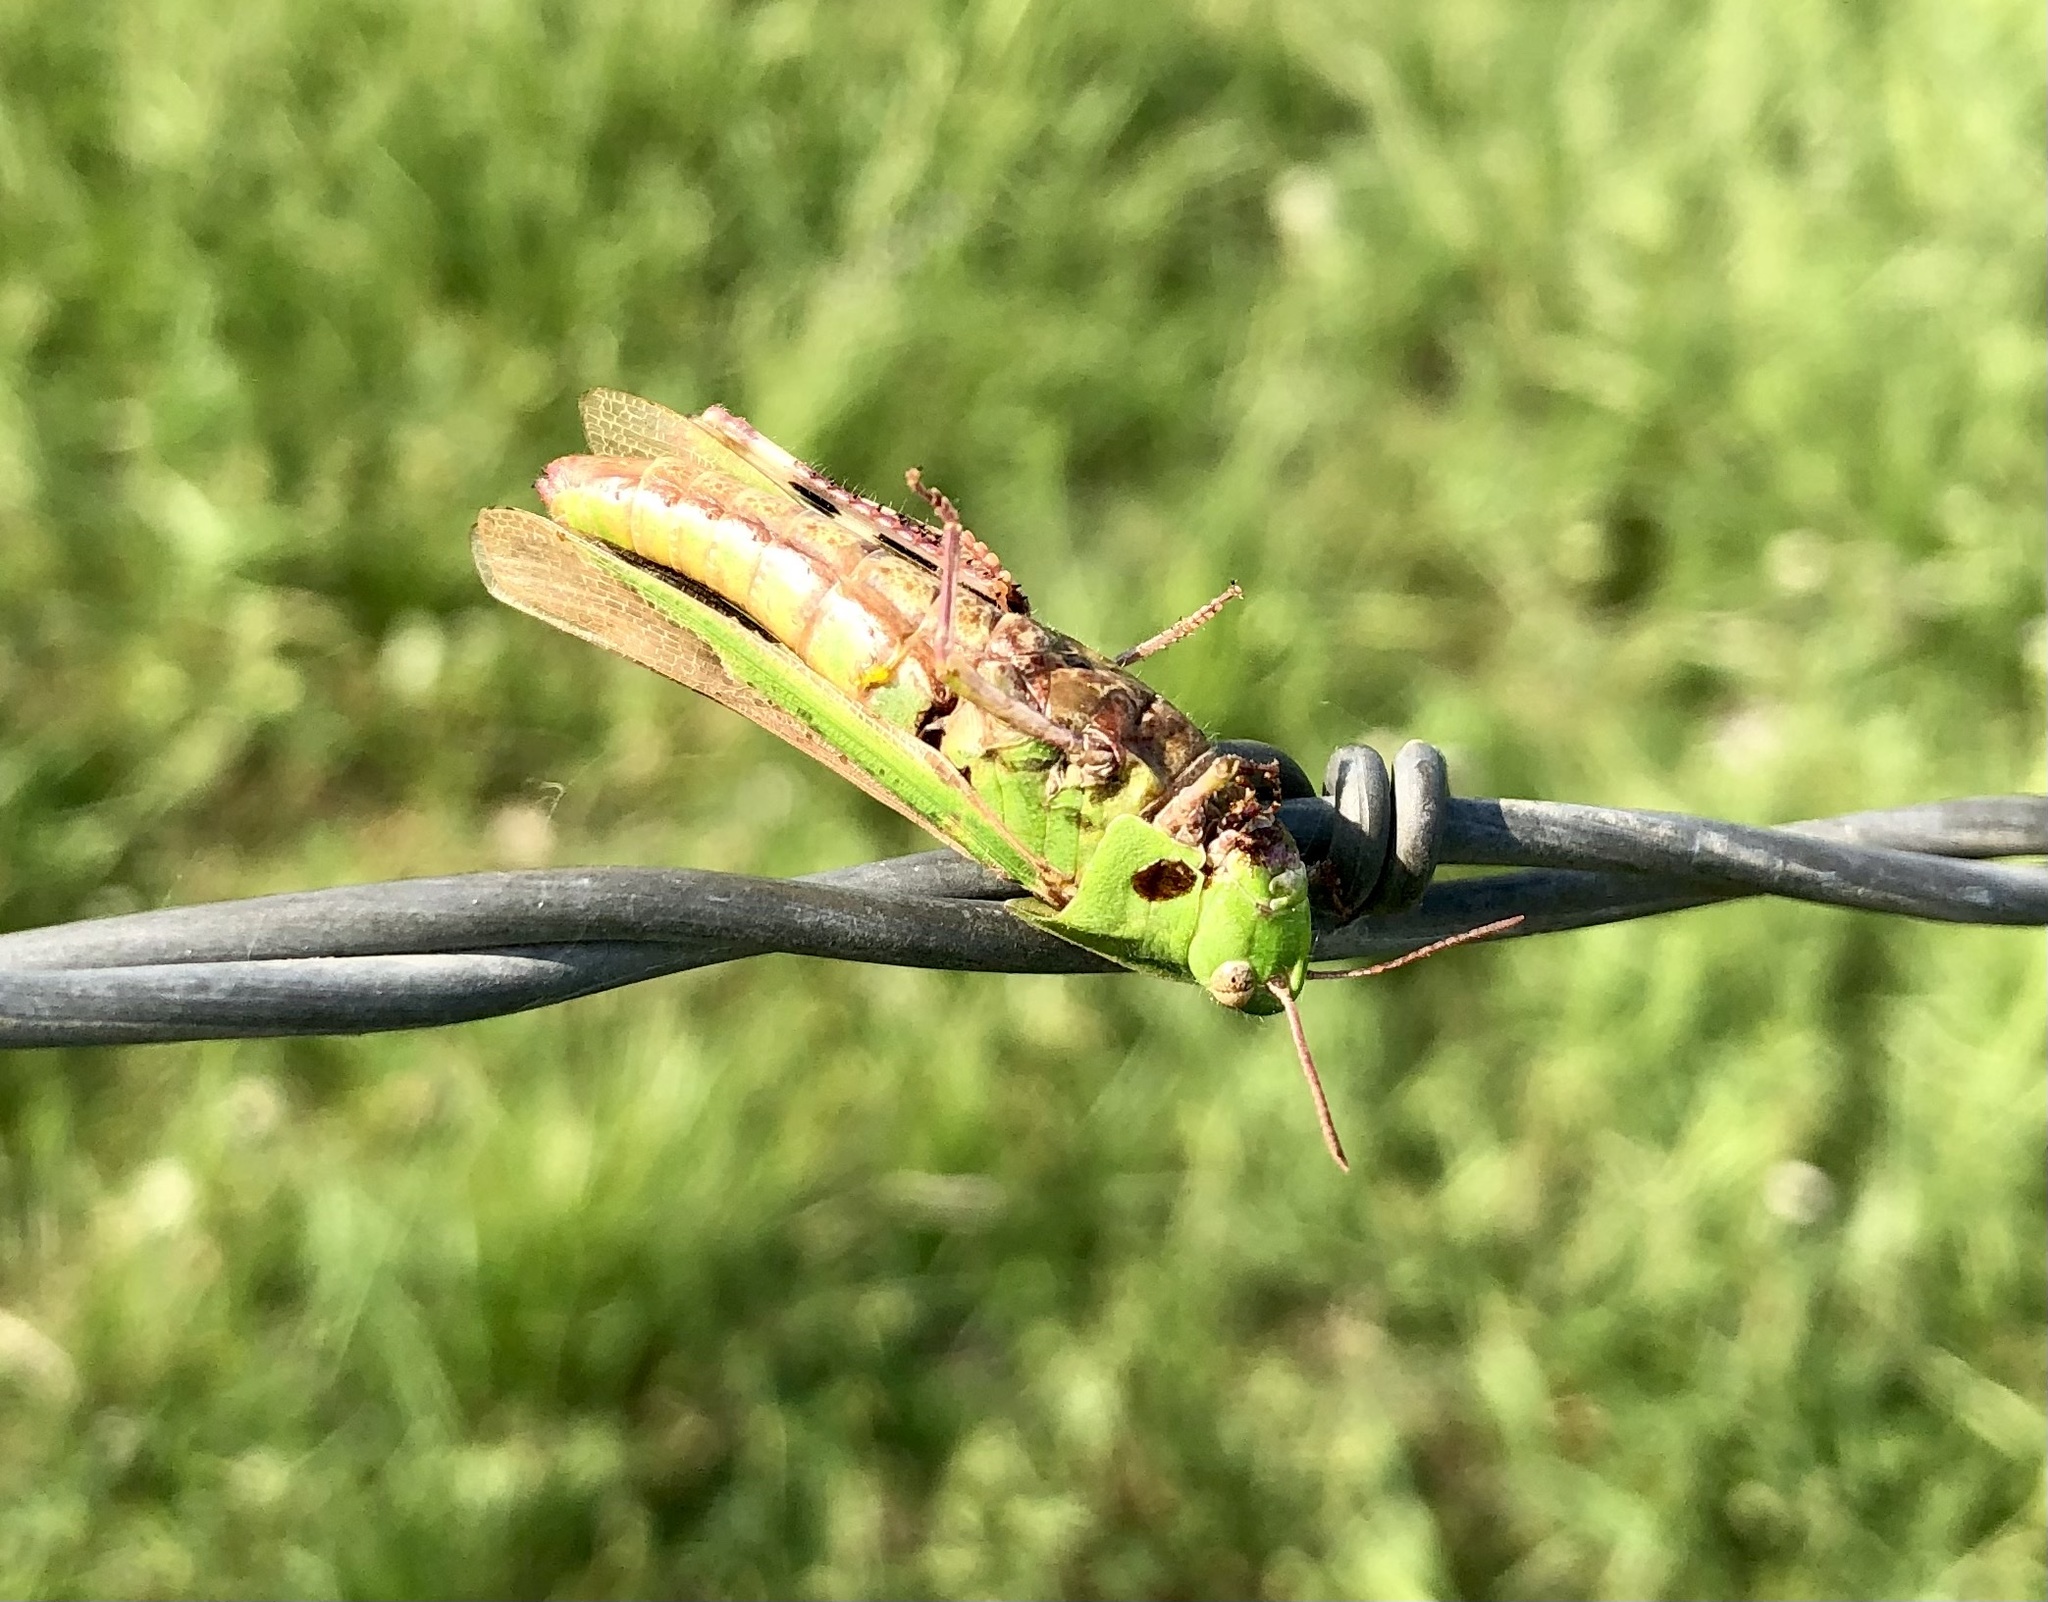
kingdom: Animalia
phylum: Arthropoda
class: Insecta
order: Orthoptera
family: Acrididae
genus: Chortophaga
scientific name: Chortophaga viridifasciata
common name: Green-striped grasshopper
